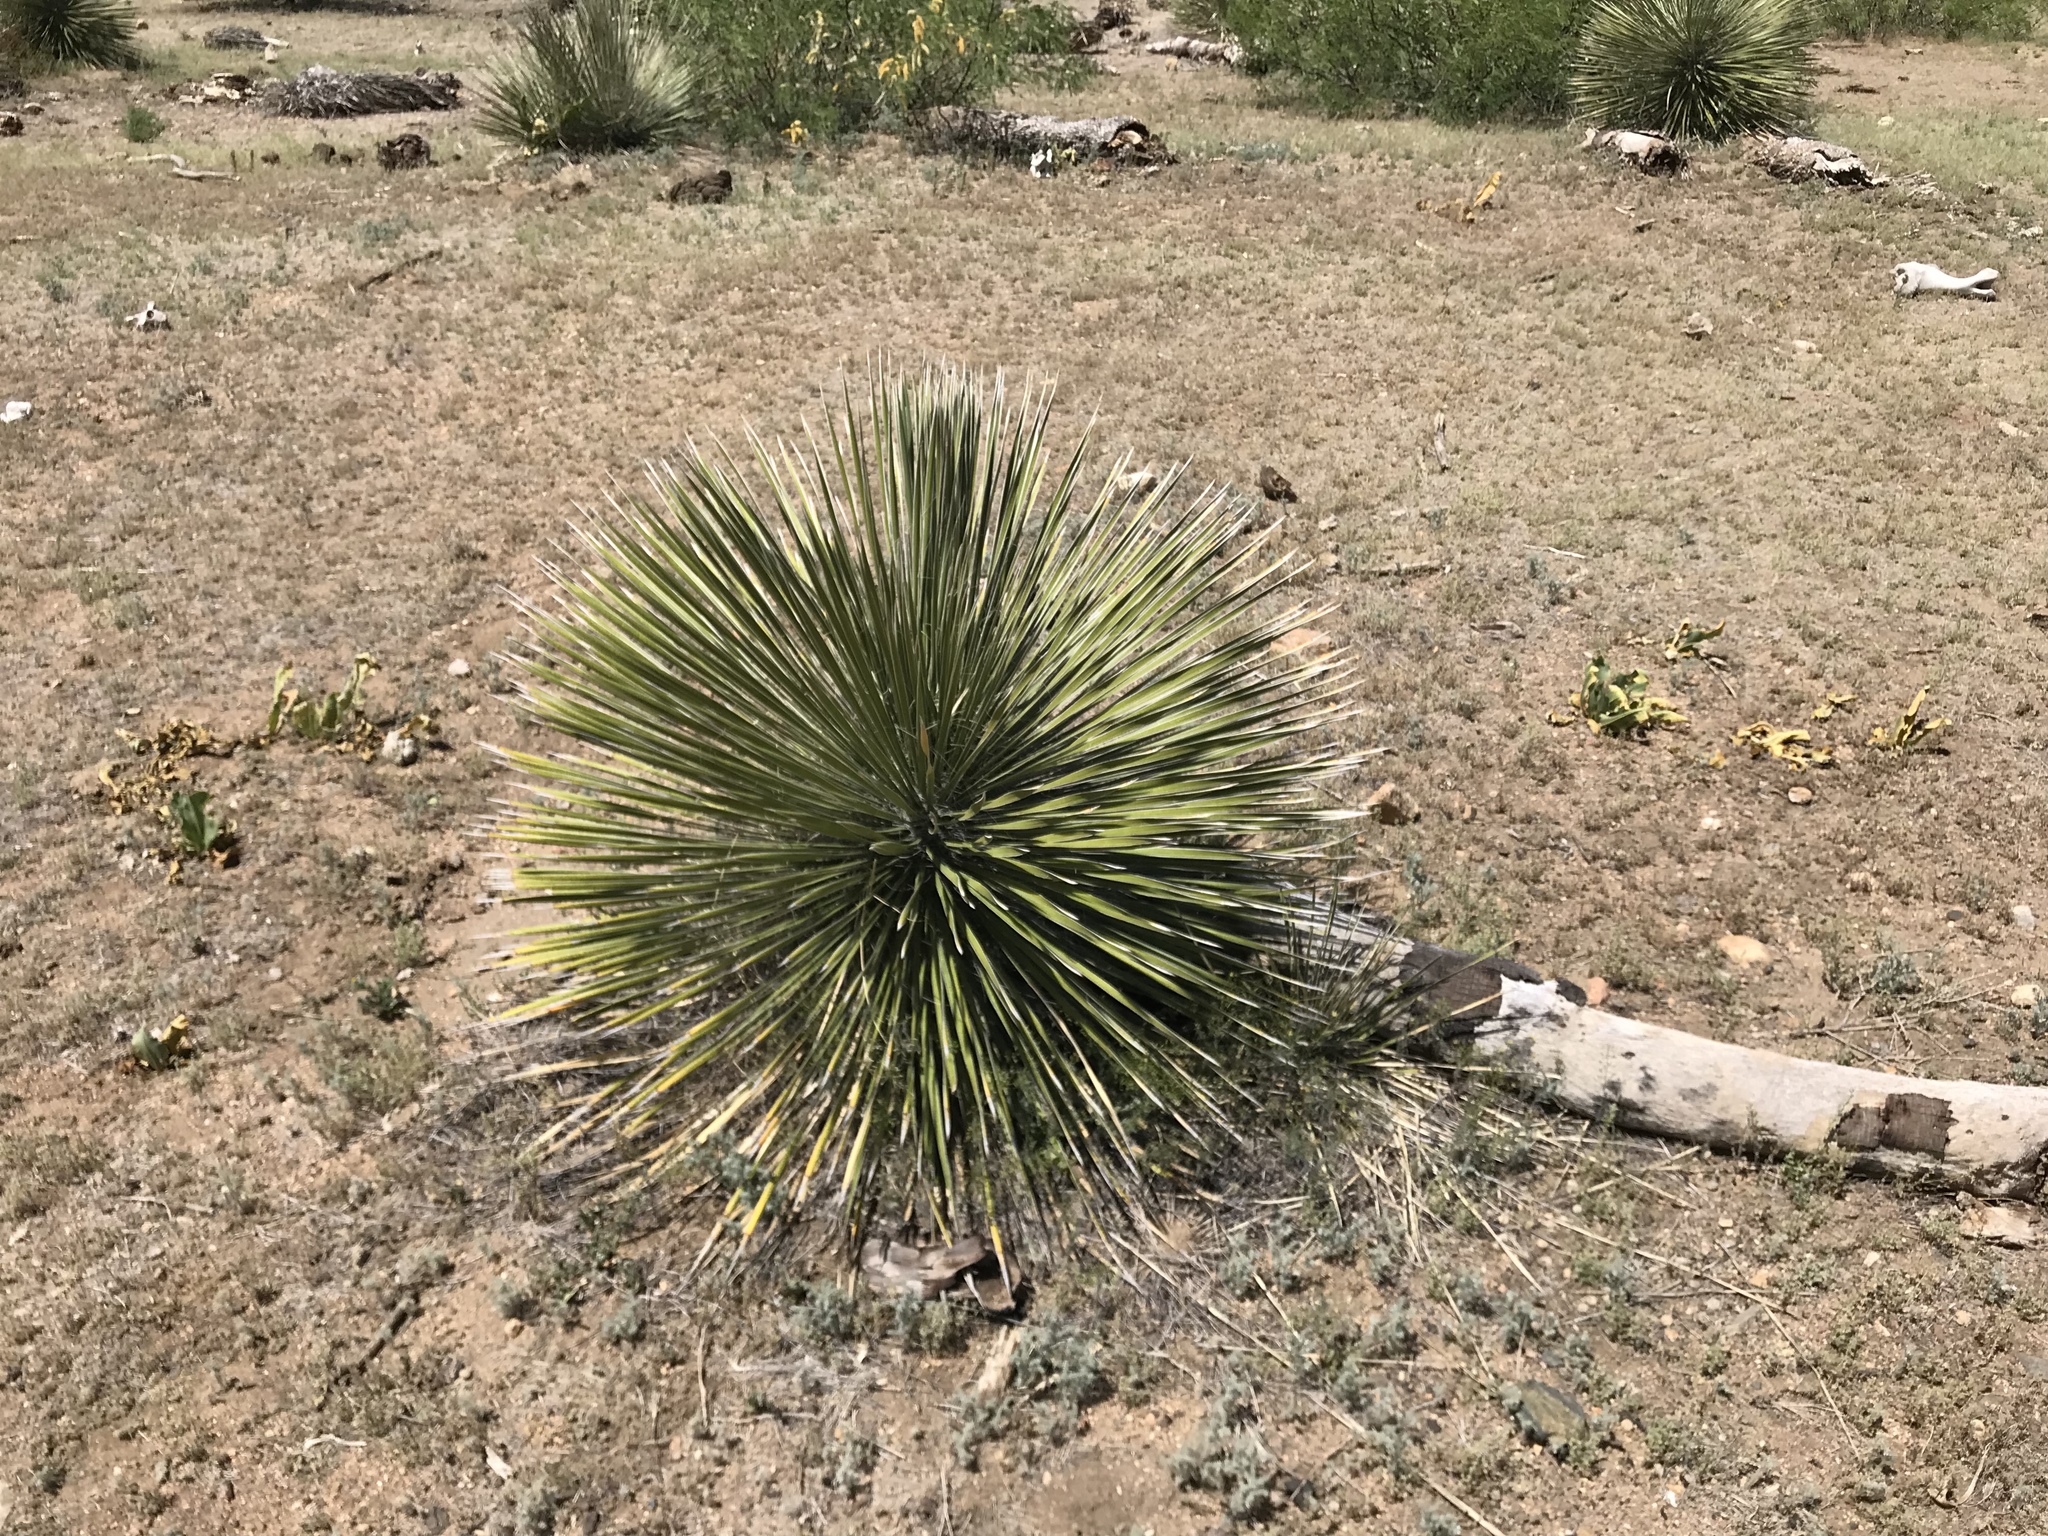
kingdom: Plantae
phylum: Tracheophyta
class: Liliopsida
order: Asparagales
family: Asparagaceae
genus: Yucca
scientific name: Yucca elata
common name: Palmella
